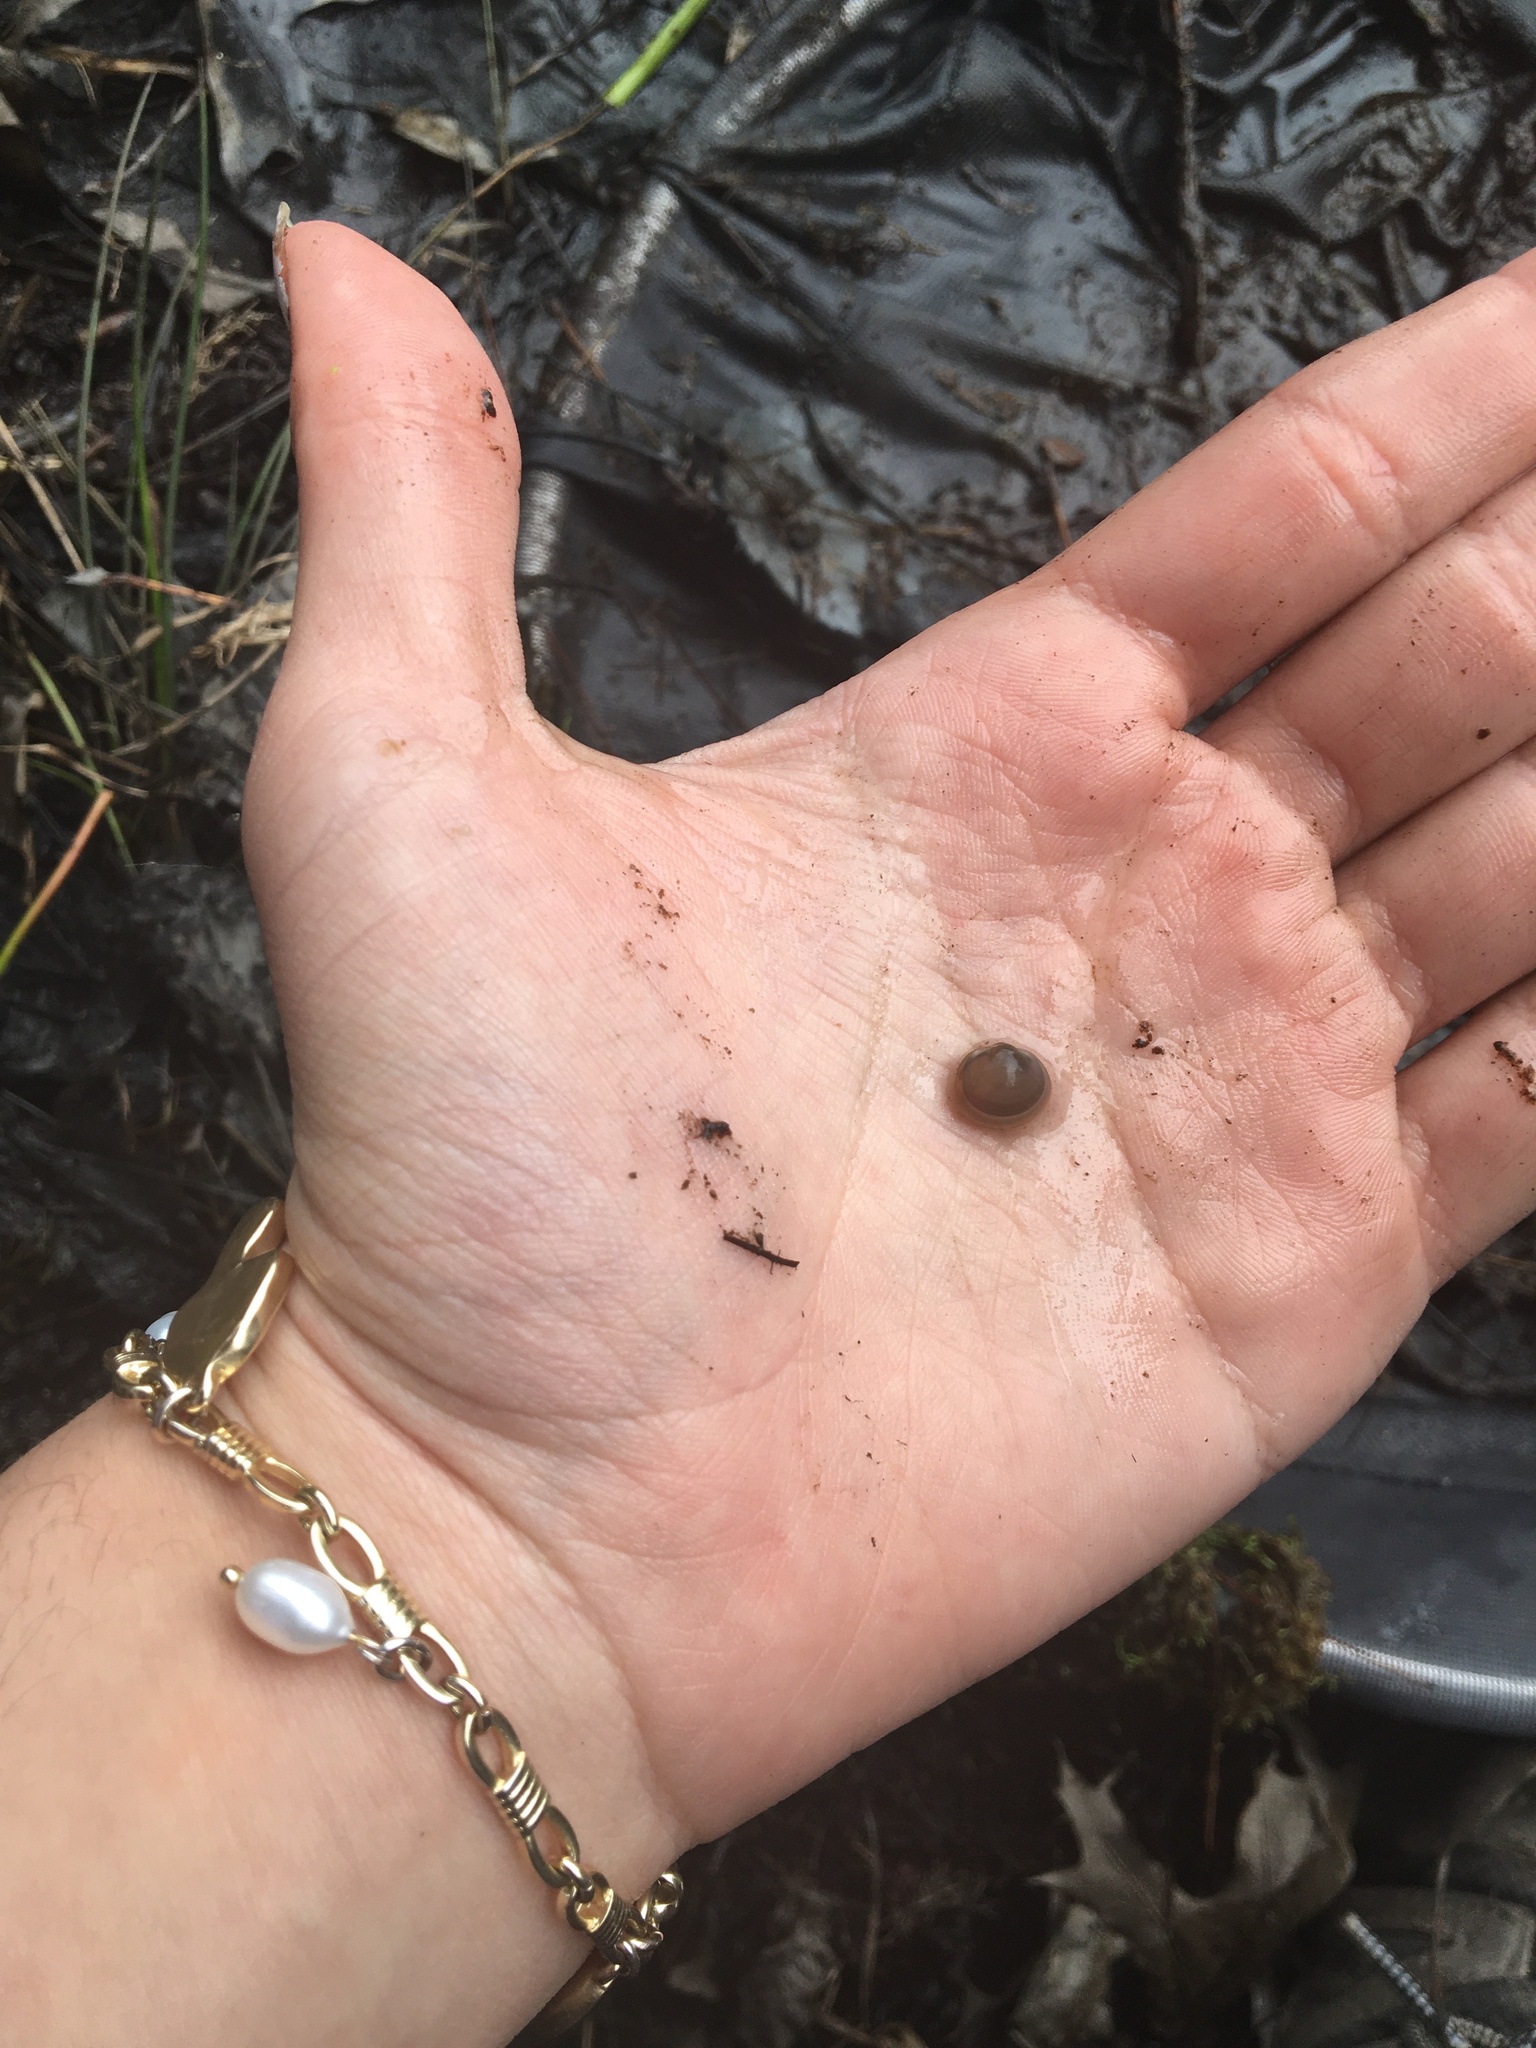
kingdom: Animalia
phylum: Mollusca
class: Bivalvia
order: Sphaeriida
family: Sphaeriidae
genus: Musculium
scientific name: Musculium partumeium
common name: Swamp fingernailclam
